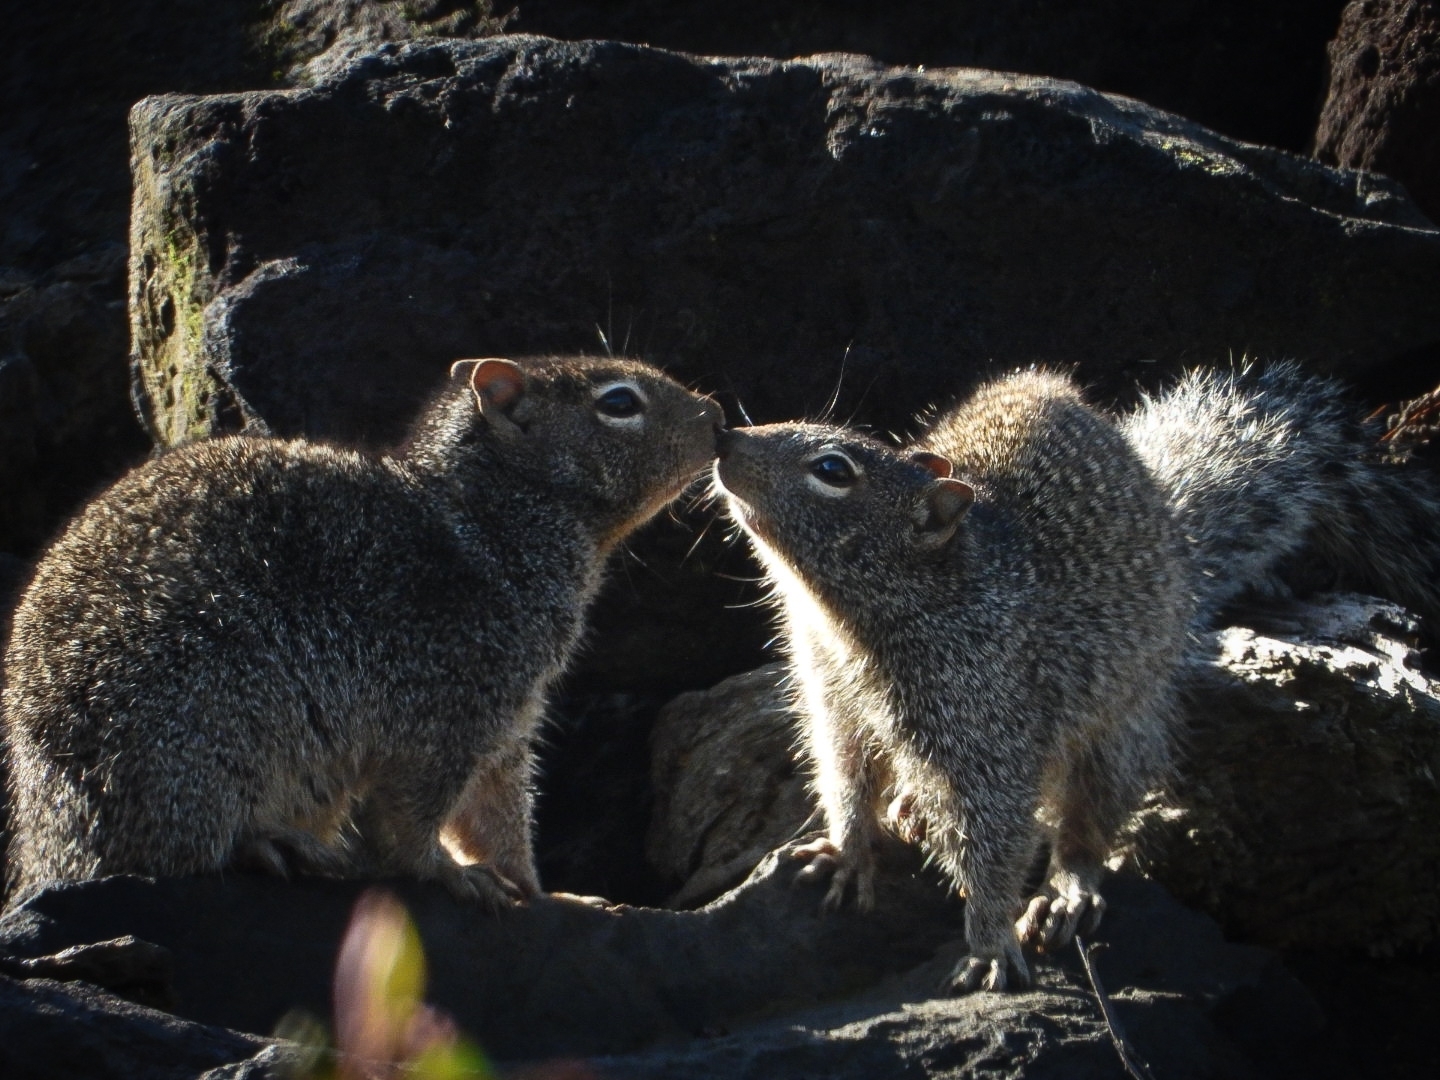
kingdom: Animalia
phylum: Chordata
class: Mammalia
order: Rodentia
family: Sciuridae
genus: Otospermophilus
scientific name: Otospermophilus variegatus
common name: Rock squirrel
